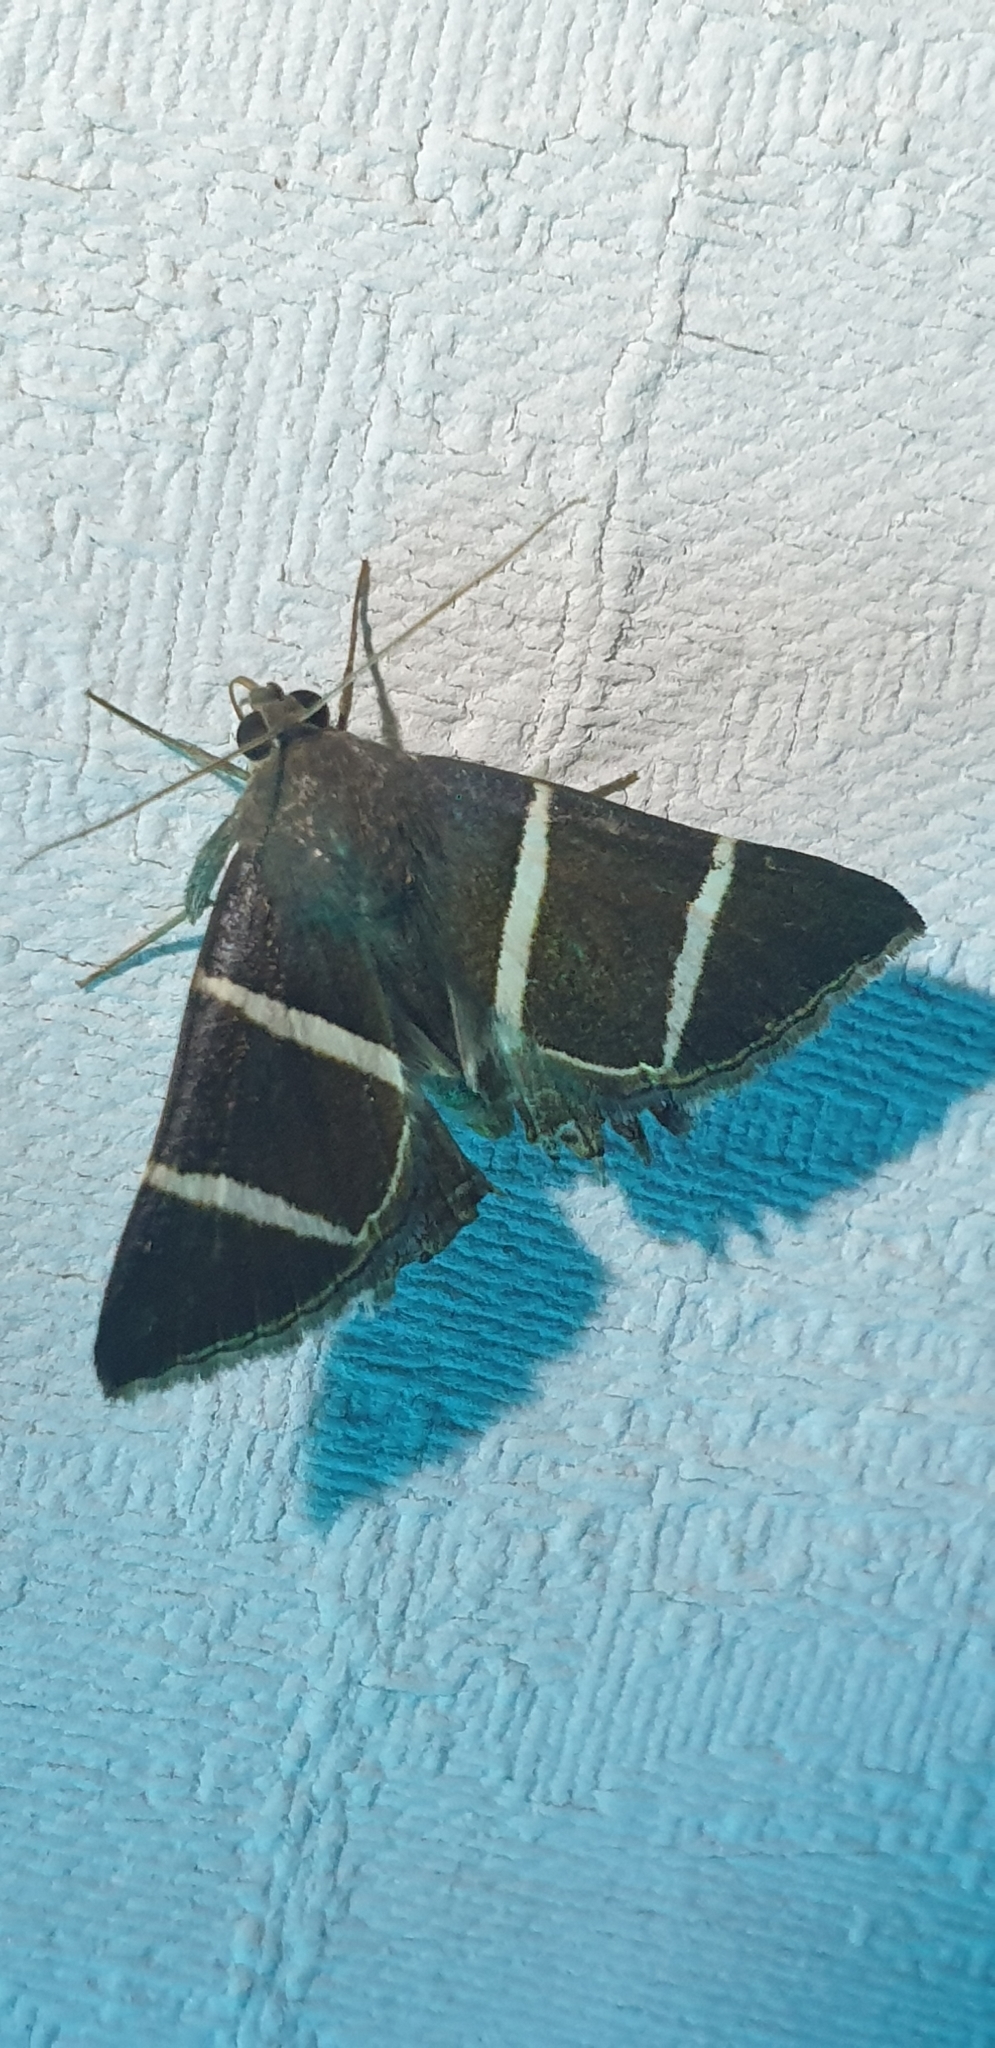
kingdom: Animalia
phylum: Arthropoda
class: Insecta
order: Lepidoptera
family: Erebidae
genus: Grammodes
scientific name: Grammodes justa
